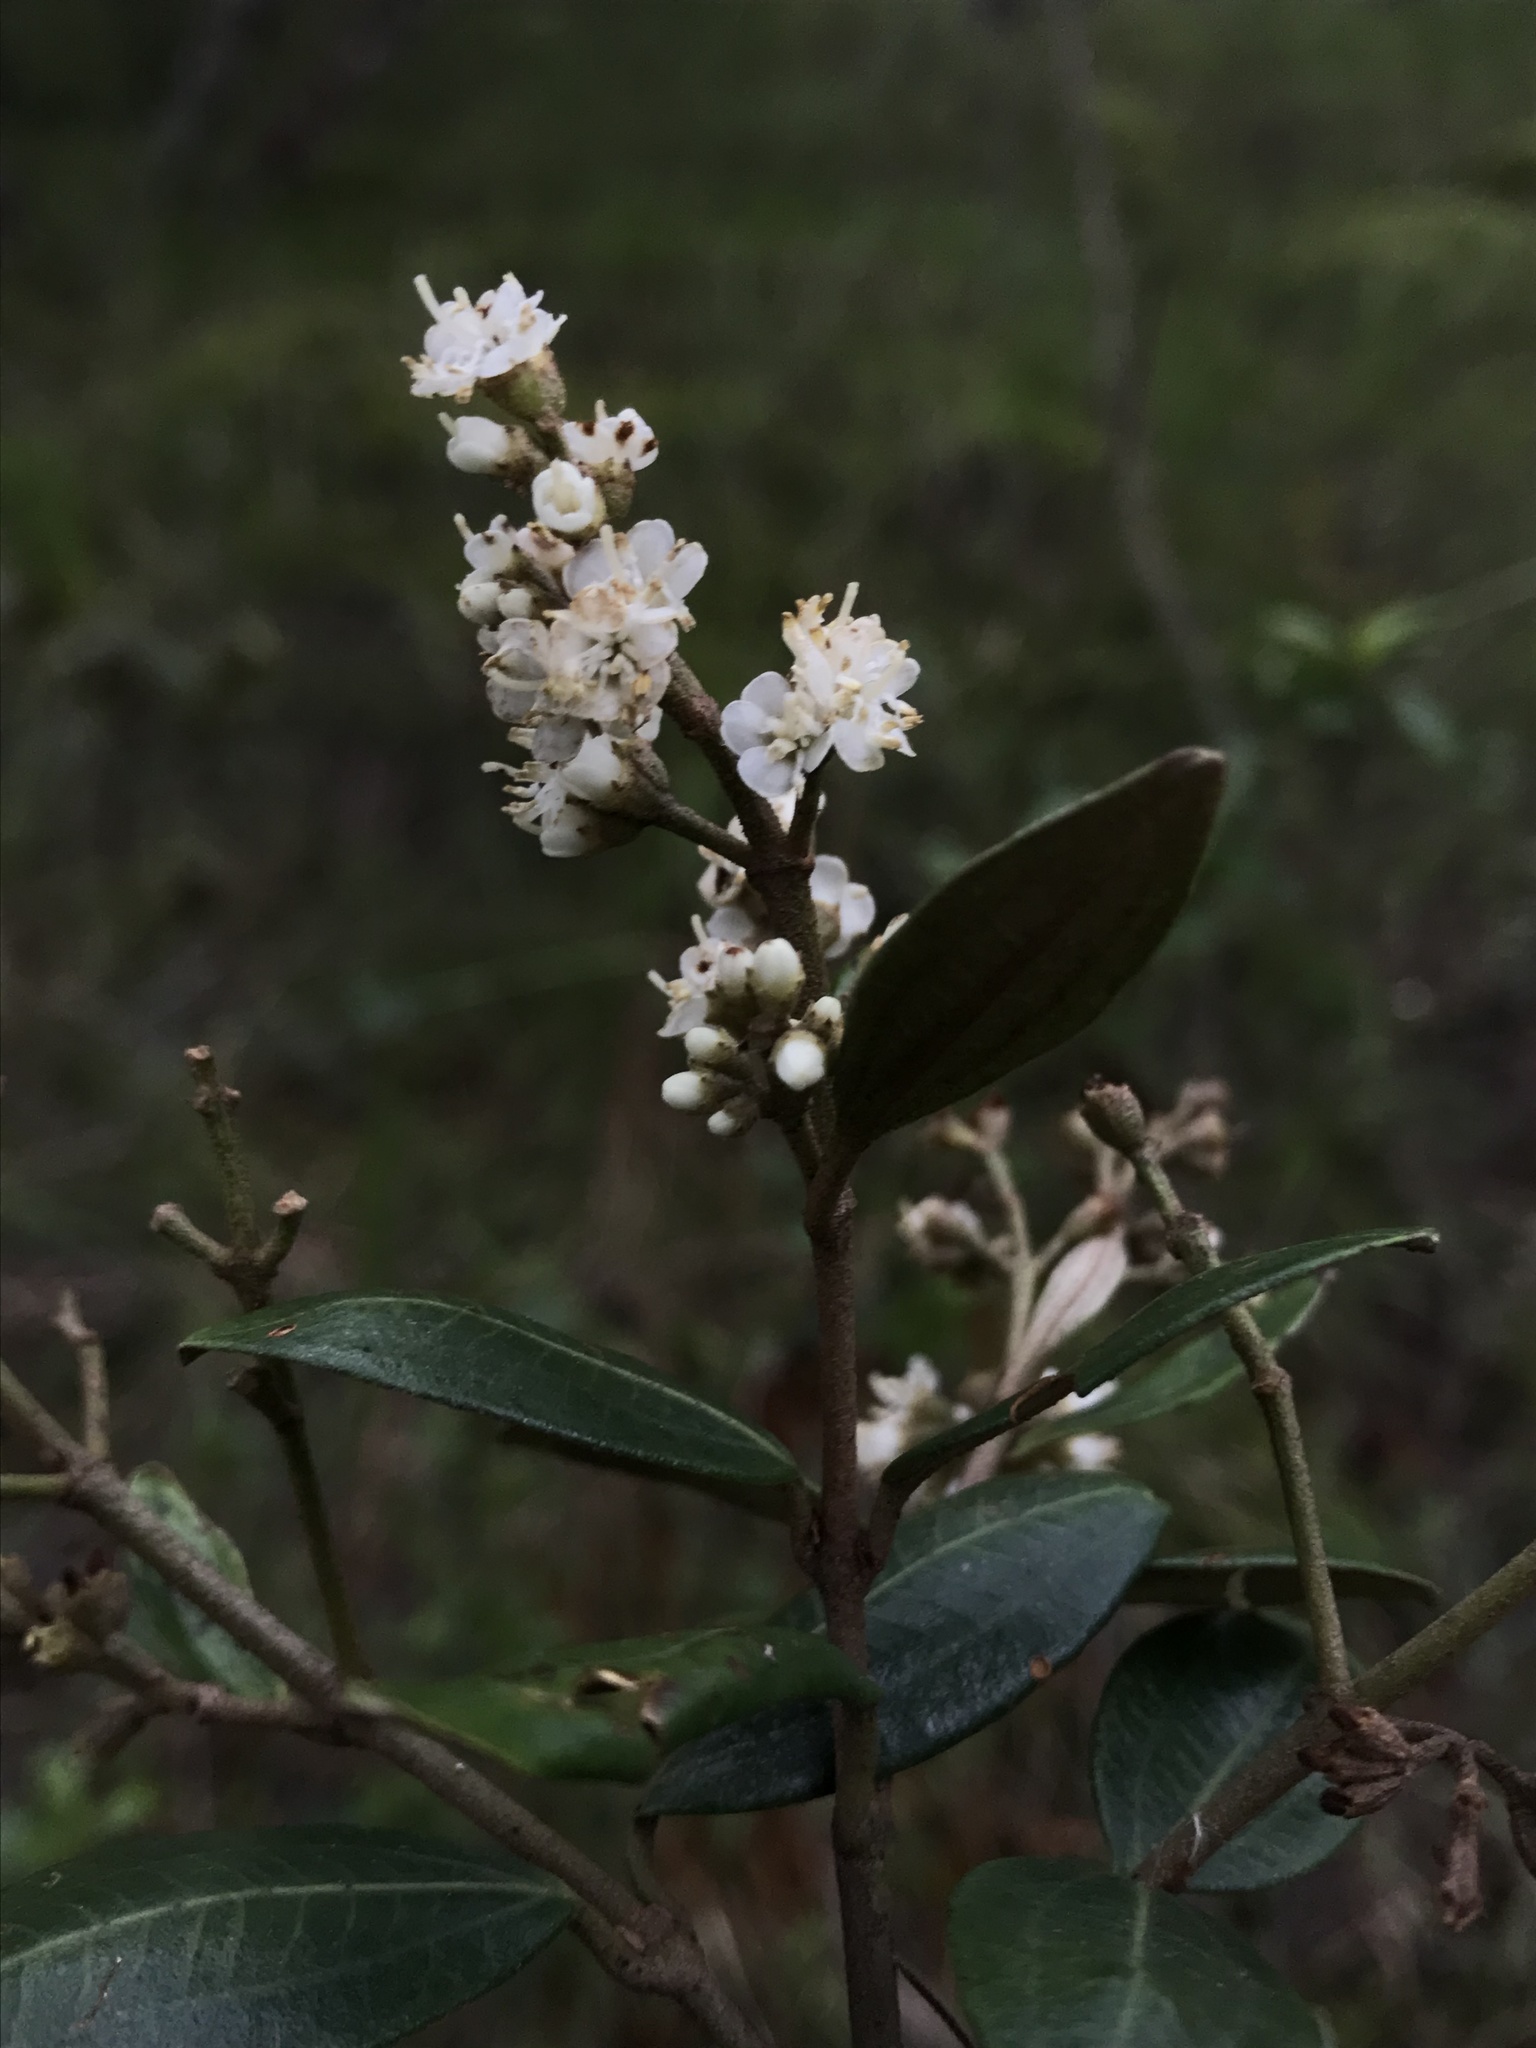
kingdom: Plantae
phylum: Tracheophyta
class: Magnoliopsida
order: Myrtales
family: Melastomataceae
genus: Miconia
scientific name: Miconia squamulosa
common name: Squamulose maya
